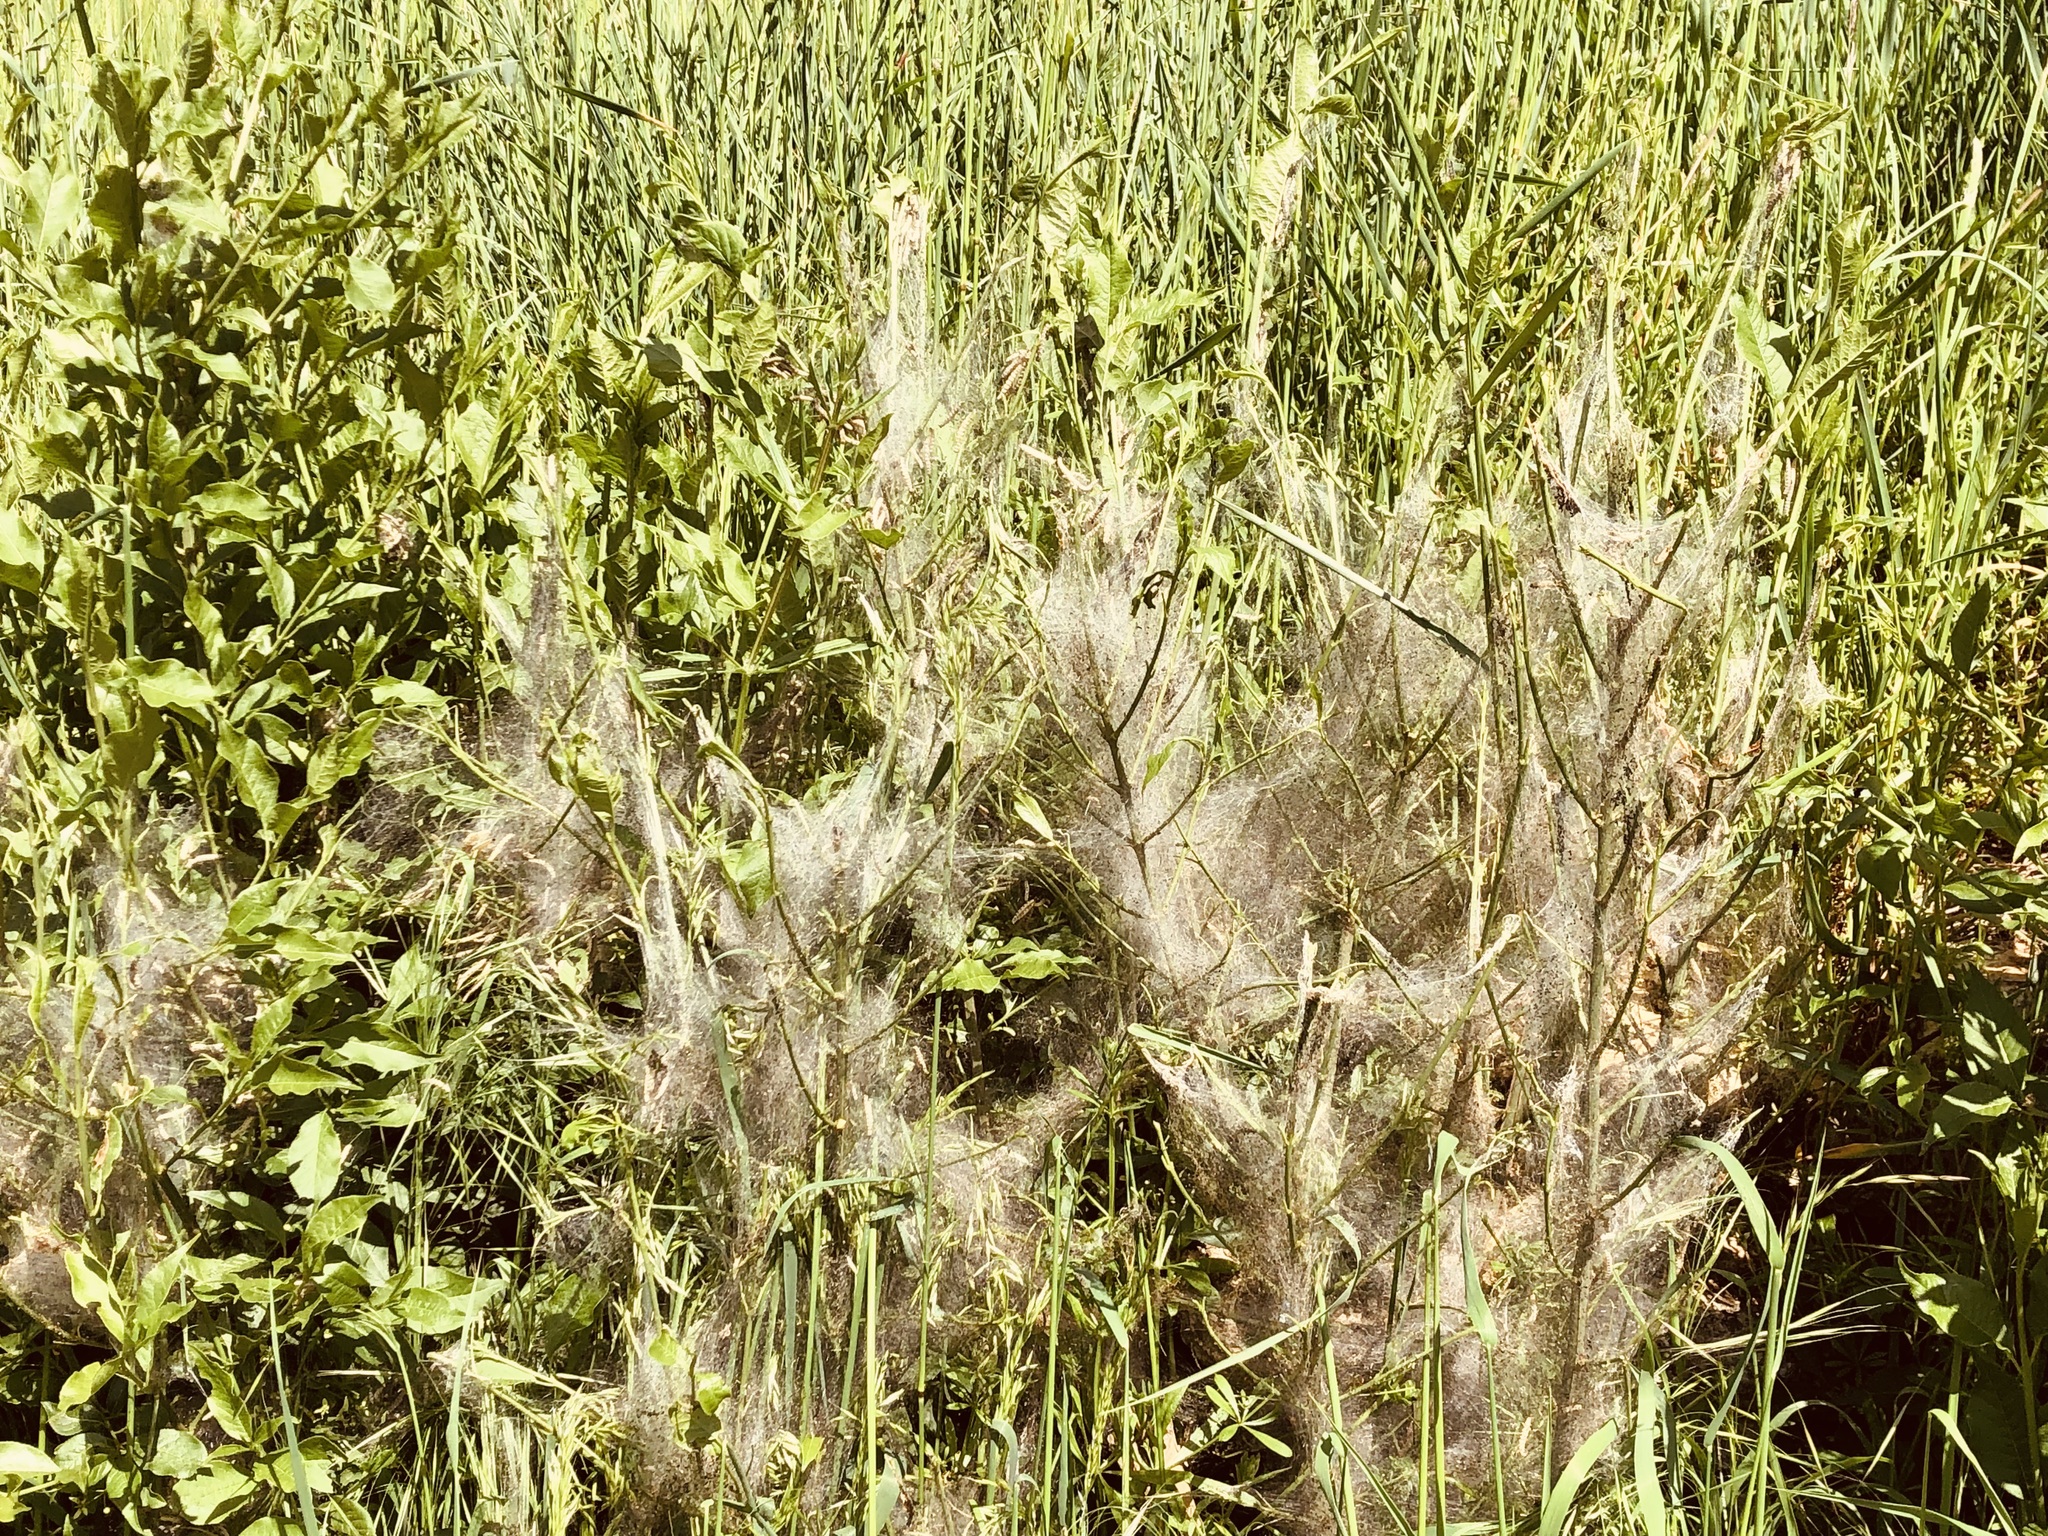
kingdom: Animalia
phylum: Arthropoda
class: Insecta
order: Lepidoptera
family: Yponomeutidae
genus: Yponomeuta
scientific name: Yponomeuta cagnagellus
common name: Spindle ermine
